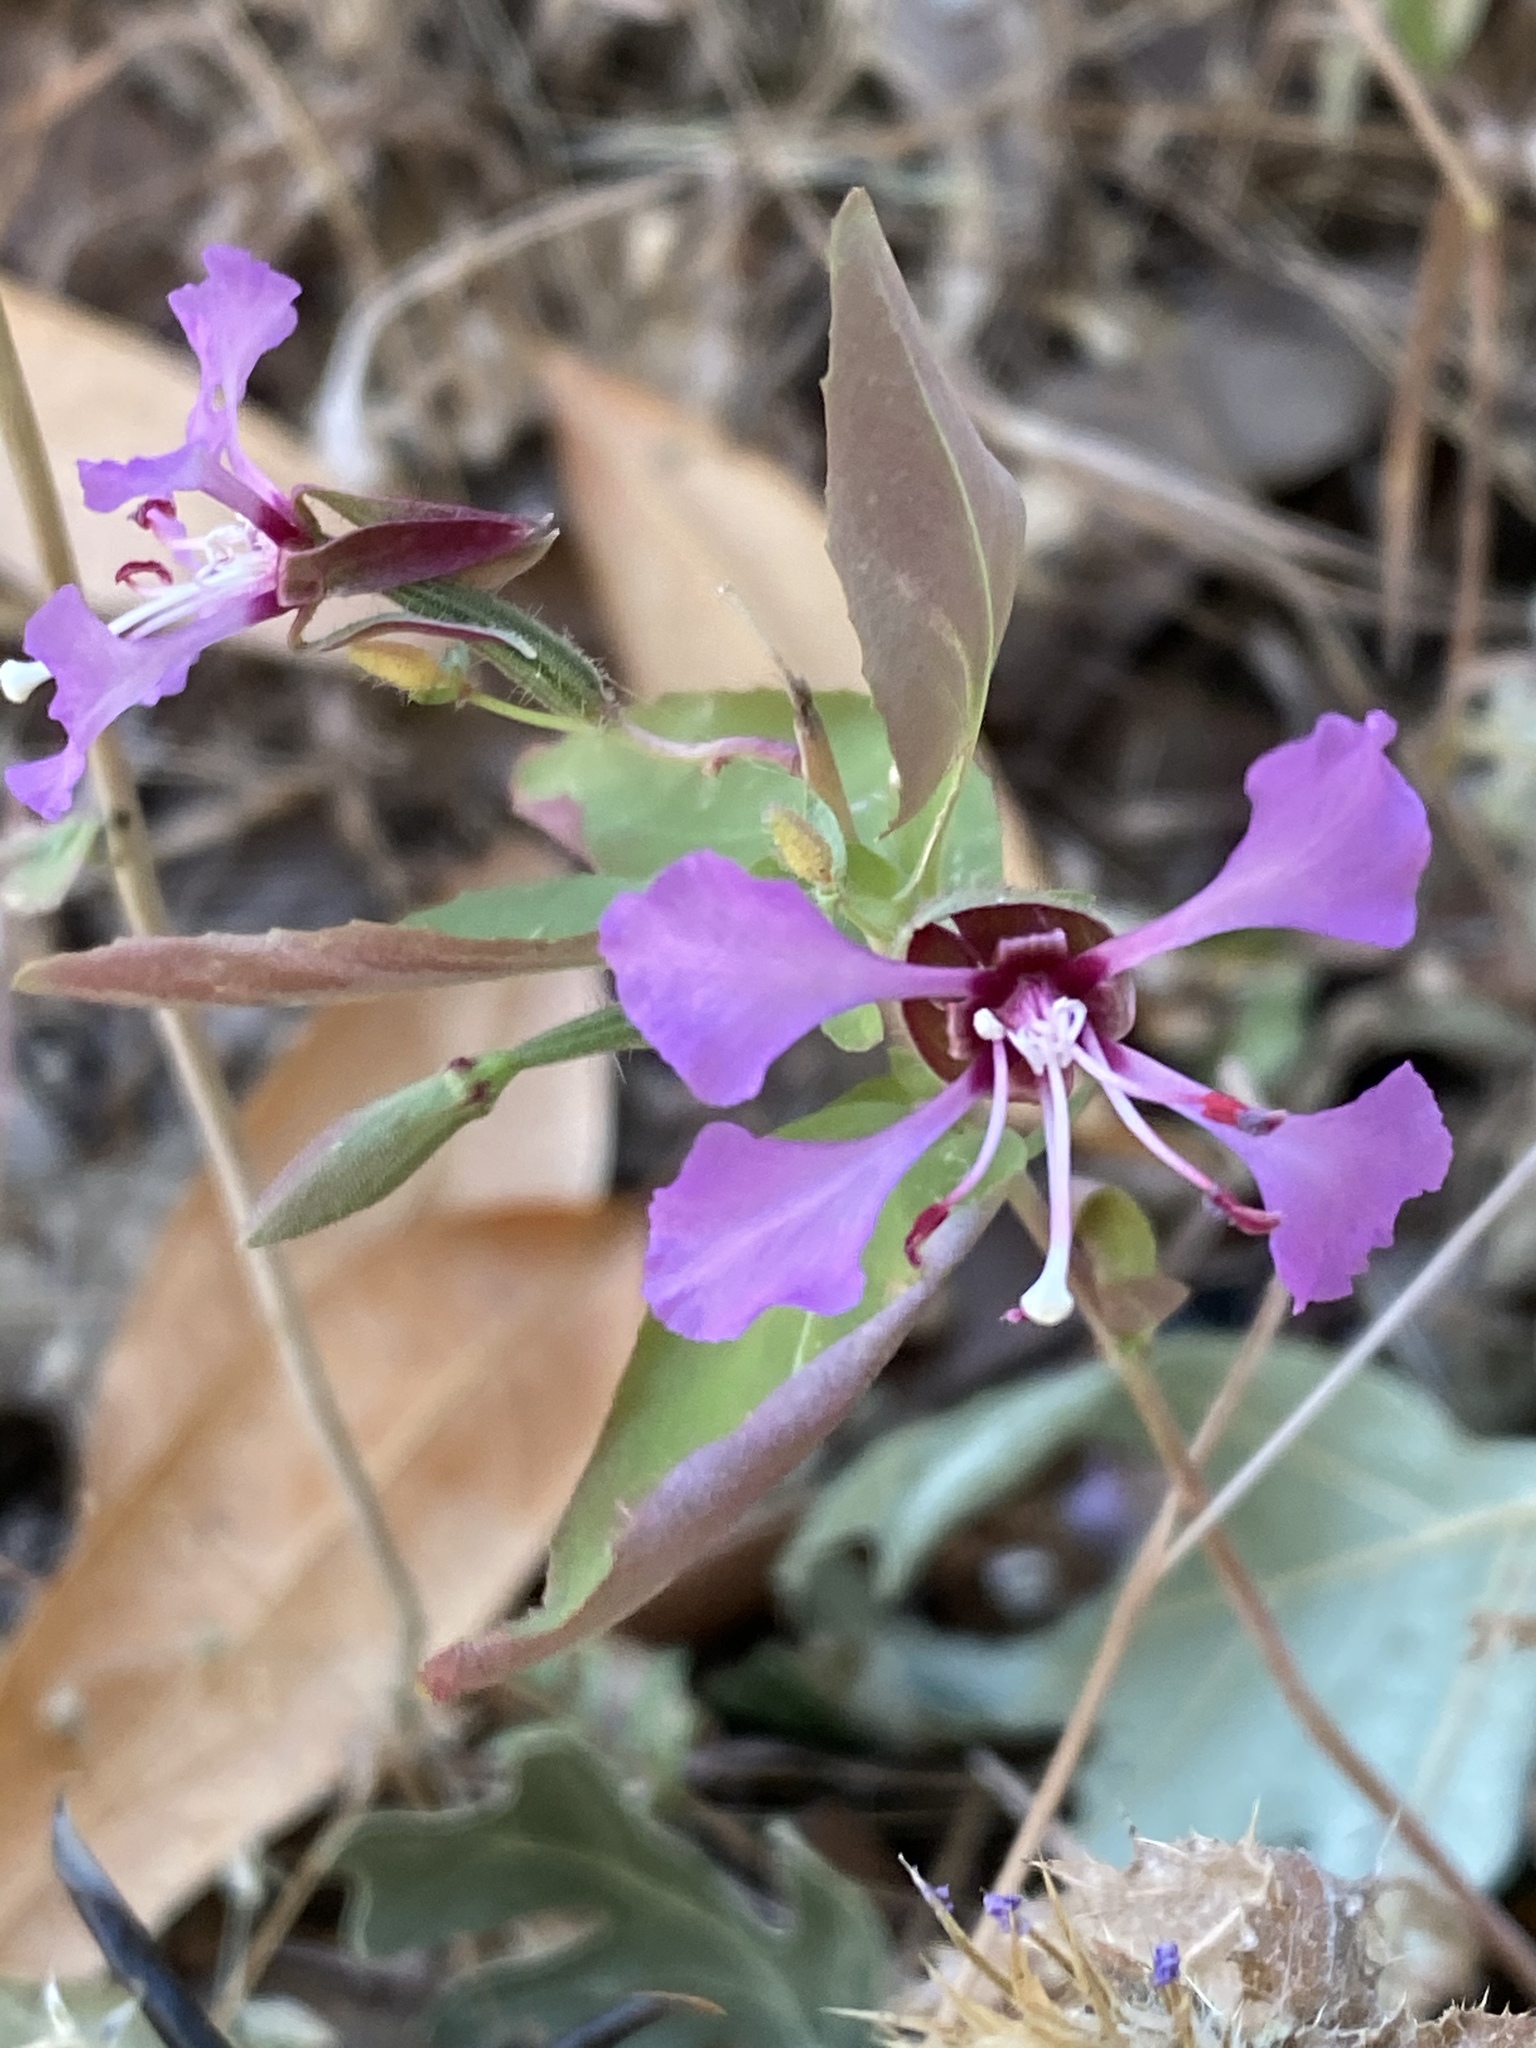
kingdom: Plantae
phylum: Tracheophyta
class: Magnoliopsida
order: Myrtales
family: Onagraceae
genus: Clarkia
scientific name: Clarkia unguiculata
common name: Clarkia
